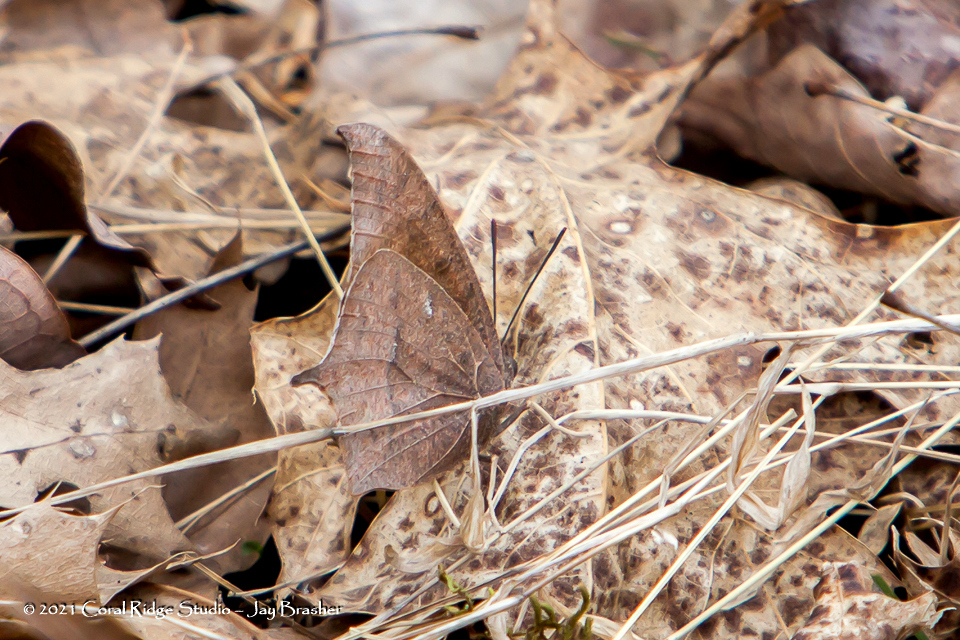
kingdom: Animalia
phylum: Arthropoda
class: Insecta
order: Lepidoptera
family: Nymphalidae
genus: Anaea
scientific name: Anaea andria
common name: Goatweed leafwing
